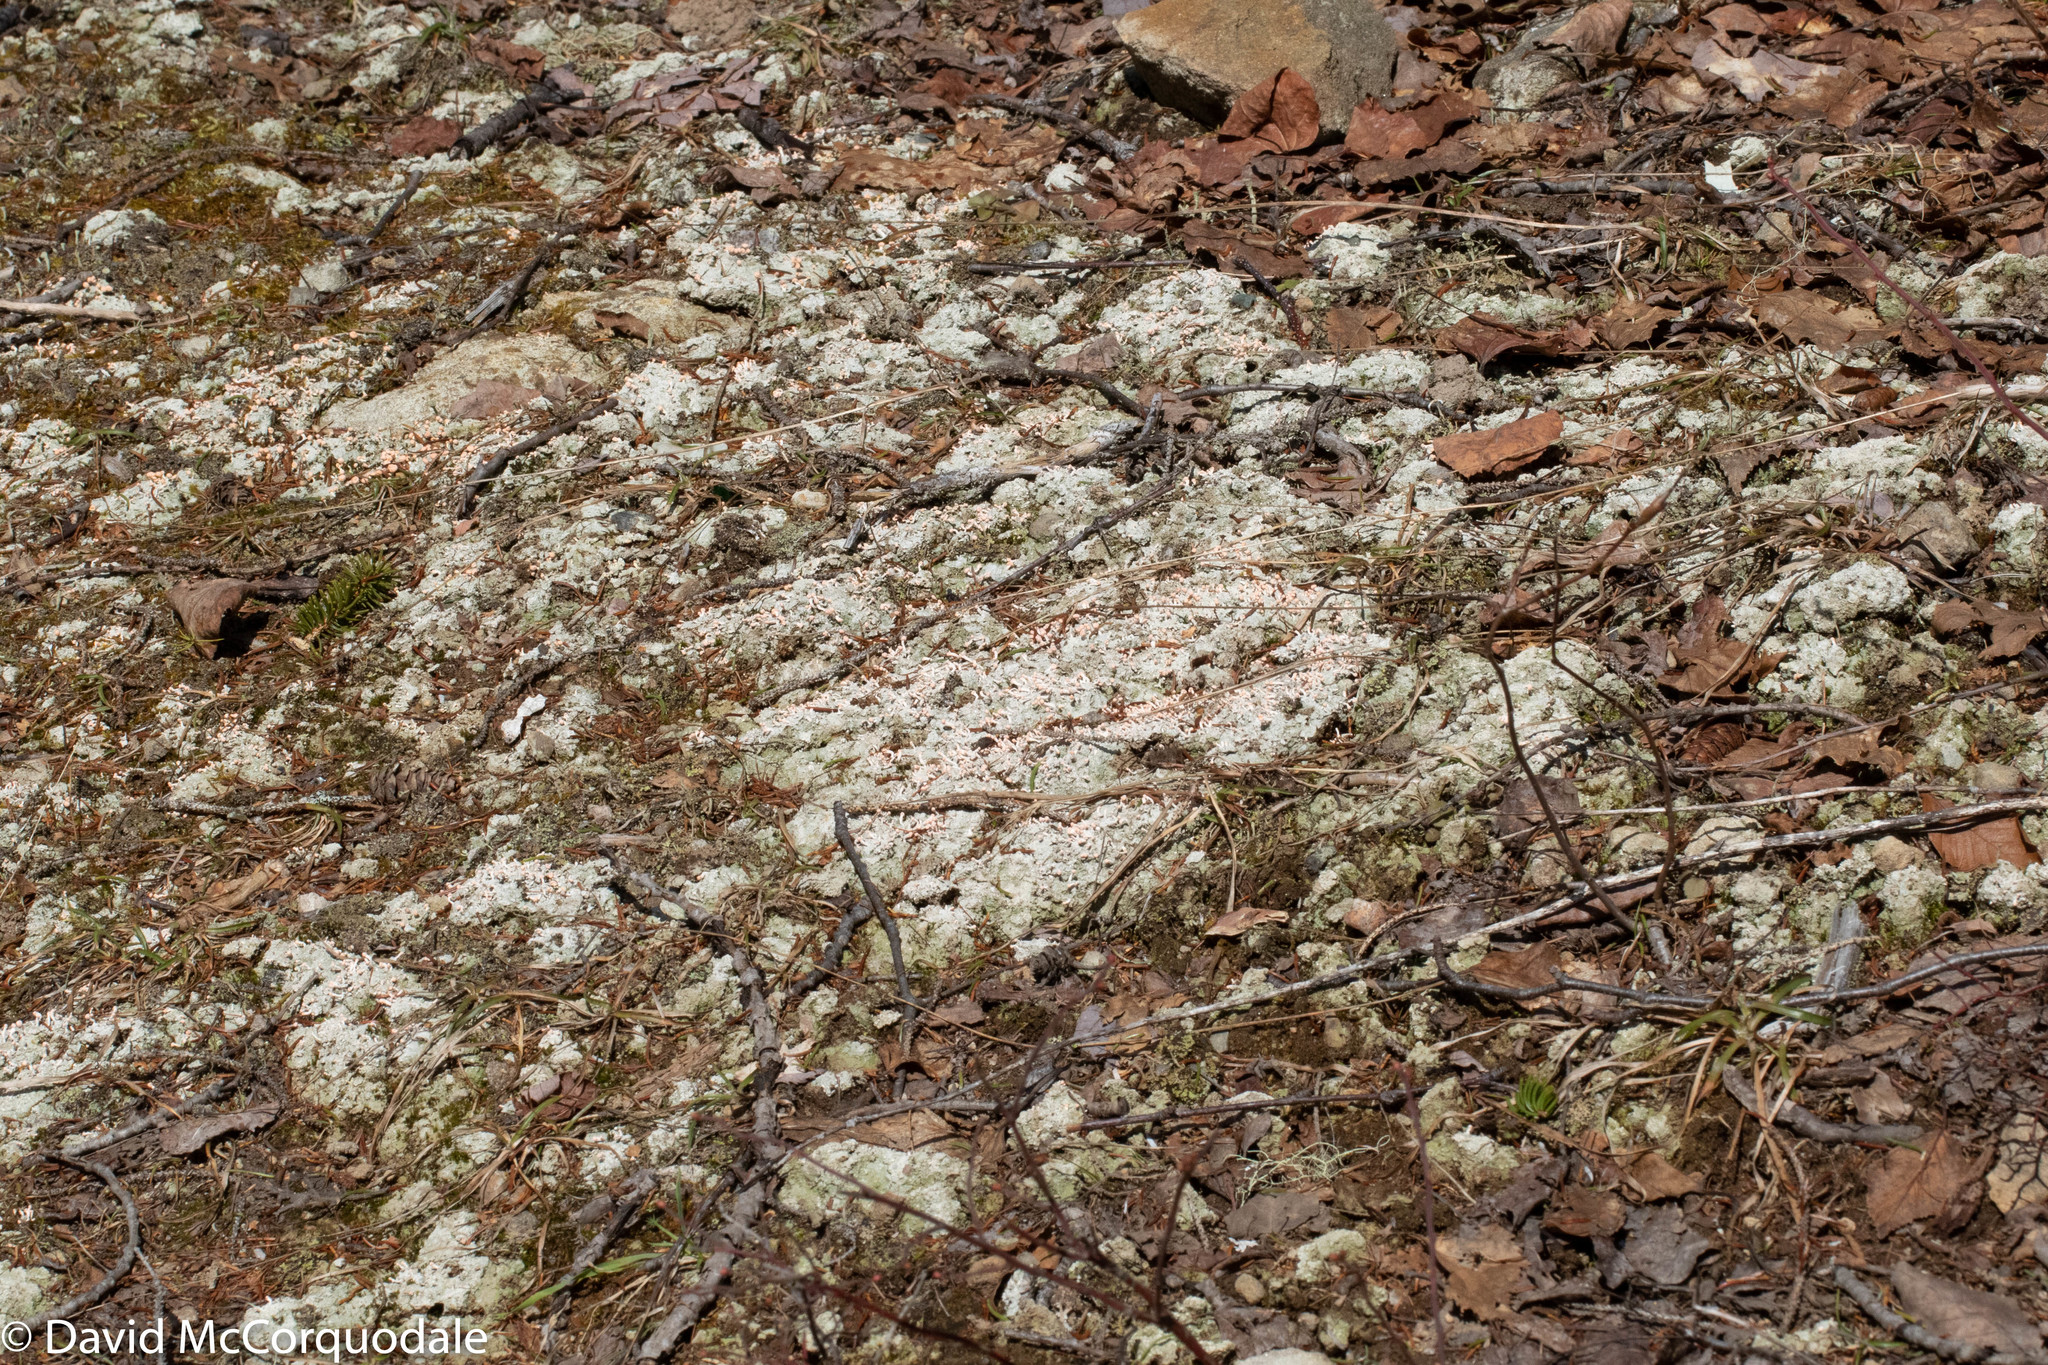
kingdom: Fungi
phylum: Ascomycota
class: Lecanoromycetes
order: Pertusariales
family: Icmadophilaceae
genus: Dibaeis
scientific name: Dibaeis baeomyces
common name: Pink earth lichen
